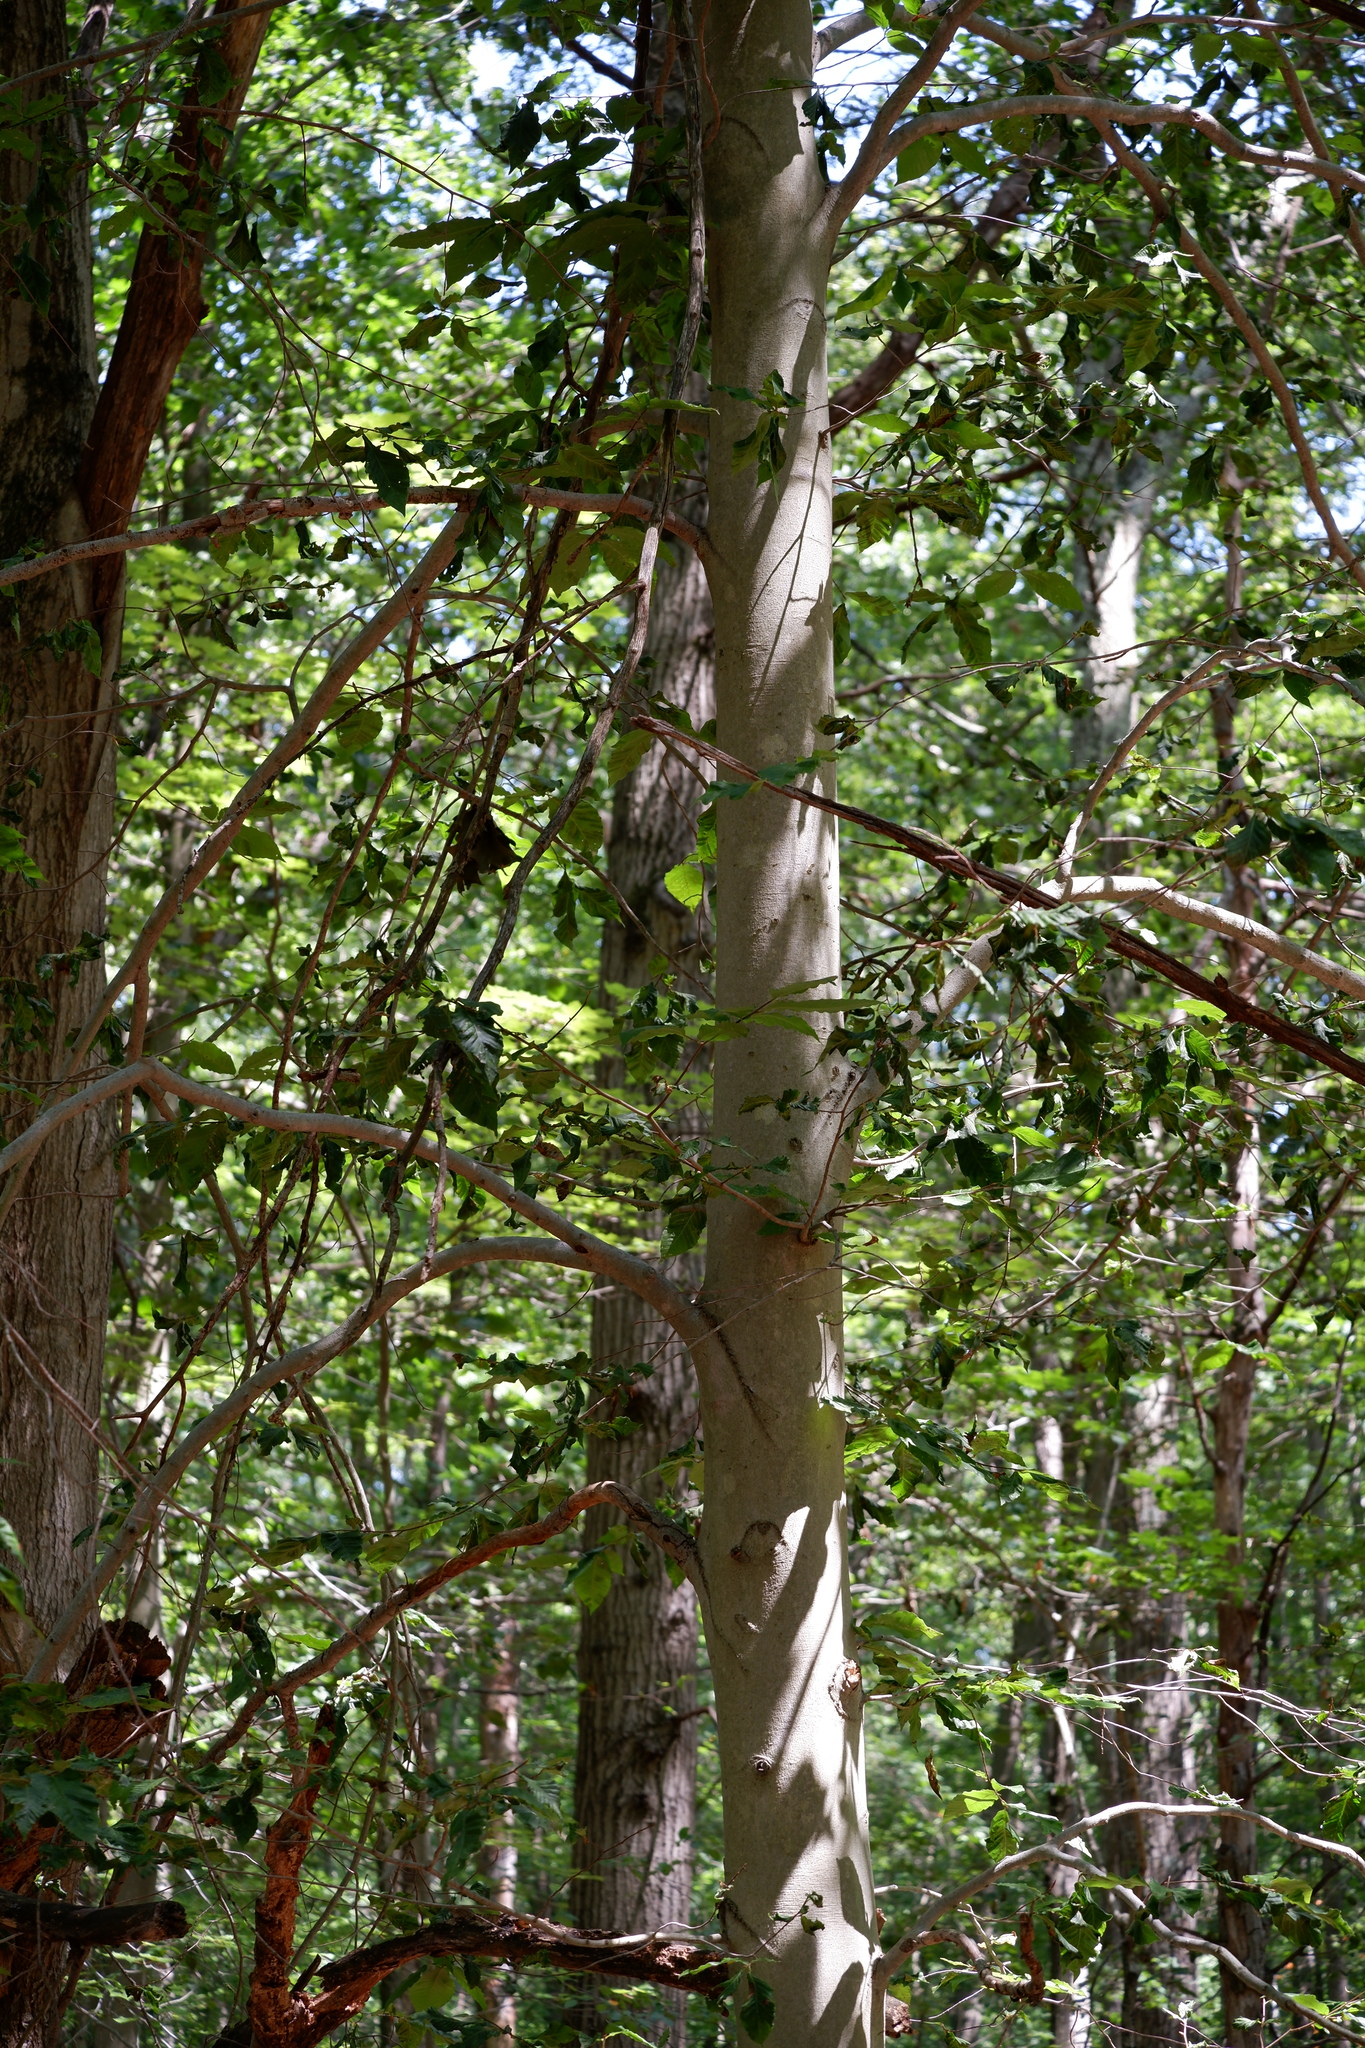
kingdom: Animalia
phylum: Nematoda
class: Chromadorea
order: Rhabditida
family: Anguinidae
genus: Litylenchus
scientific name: Litylenchus crenatae
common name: Beech leaf disease
